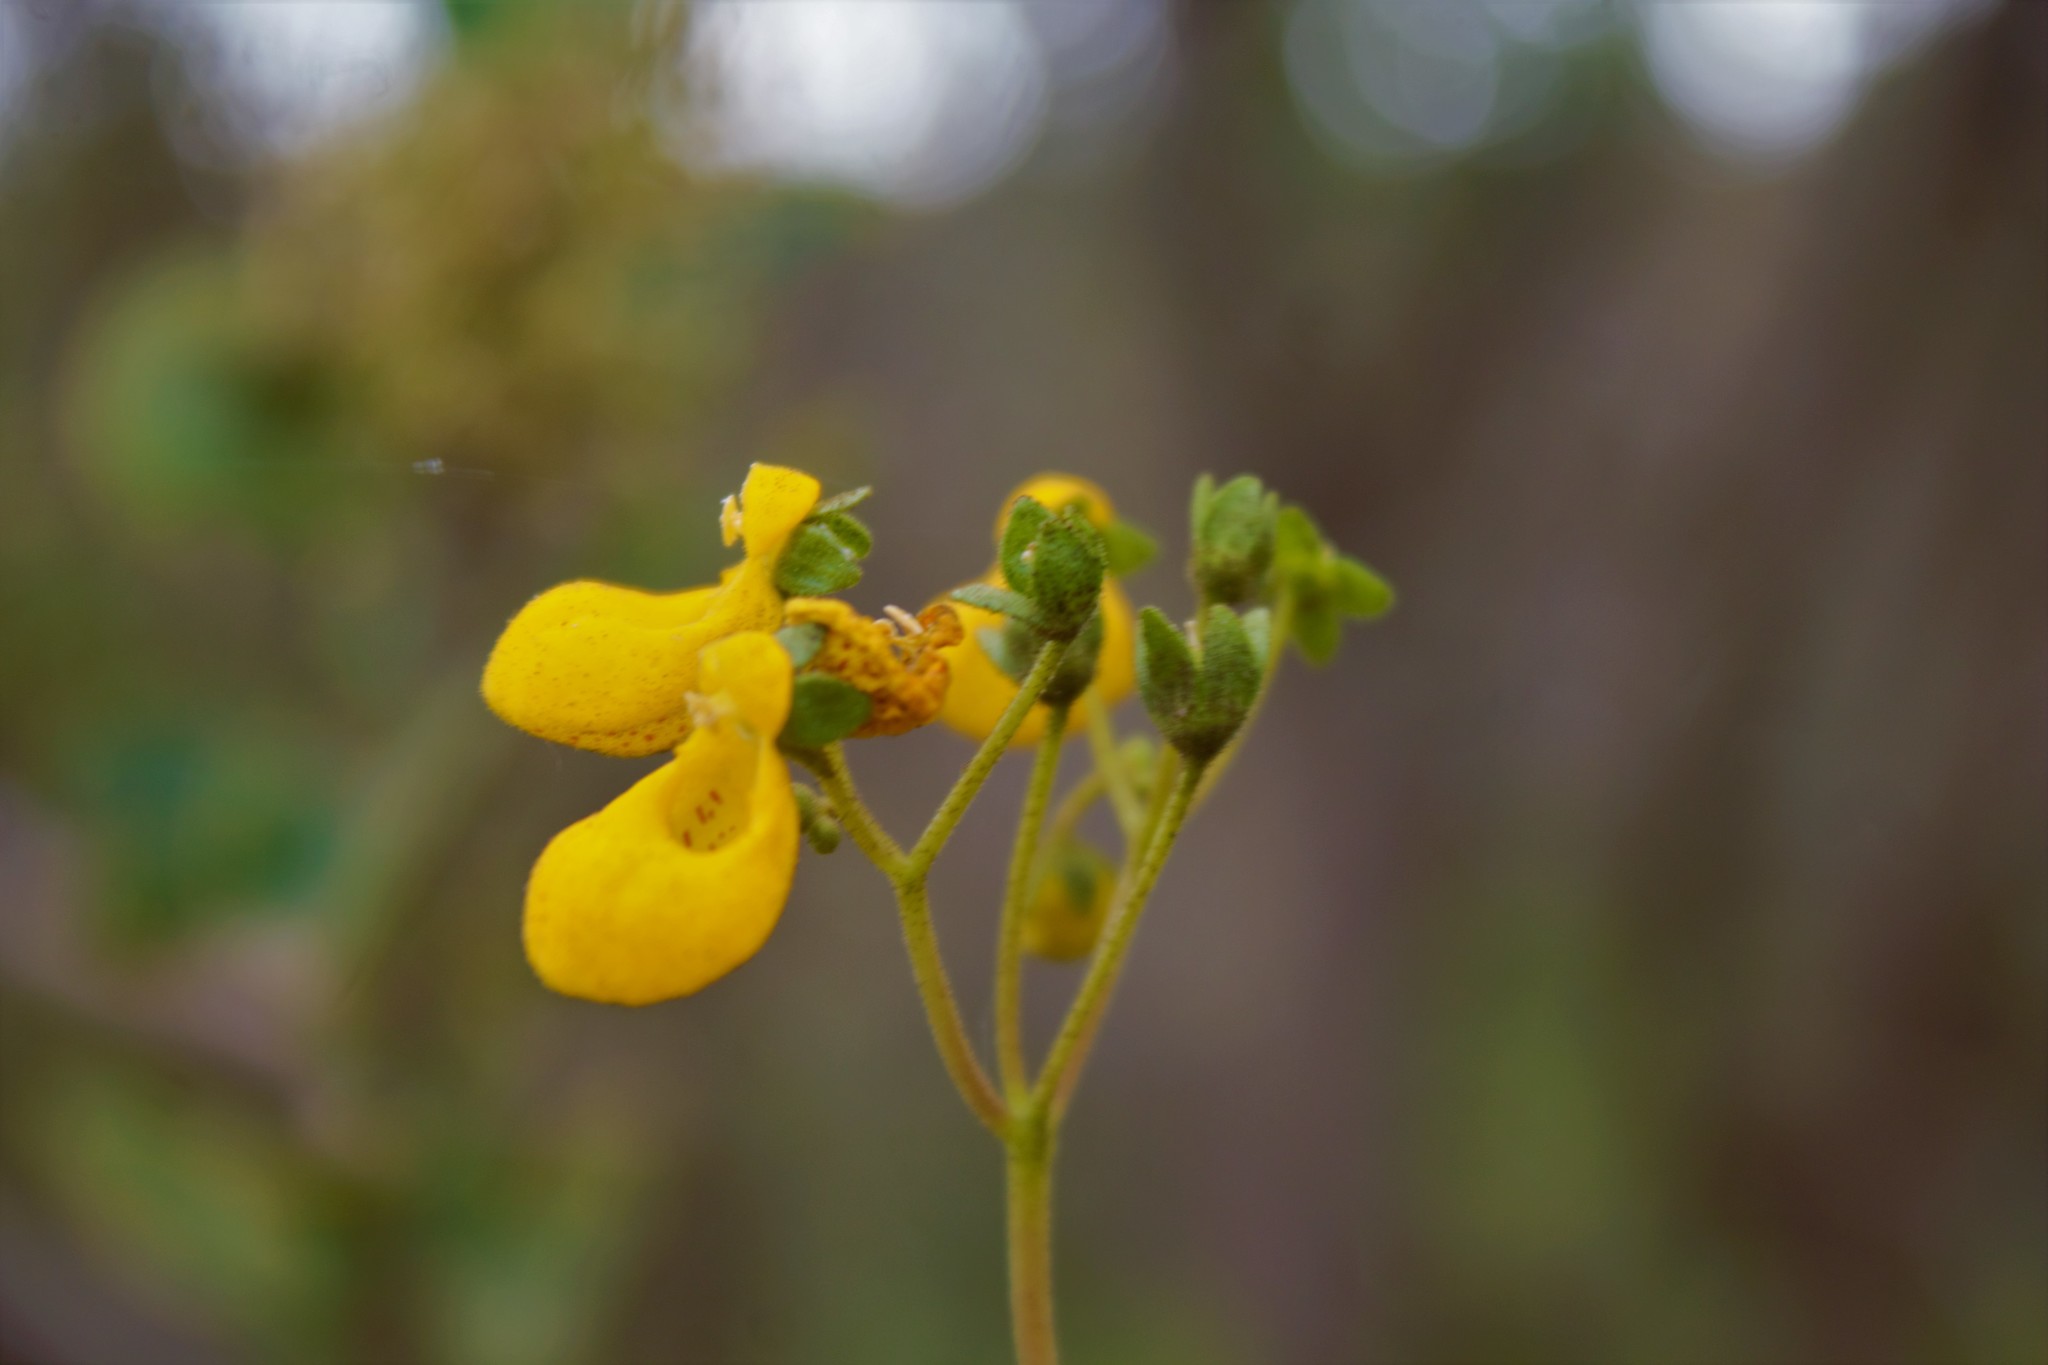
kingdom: Plantae
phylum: Tracheophyta
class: Magnoliopsida
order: Lamiales
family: Calceolariaceae
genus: Calceolaria
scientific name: Calceolaria germainii
